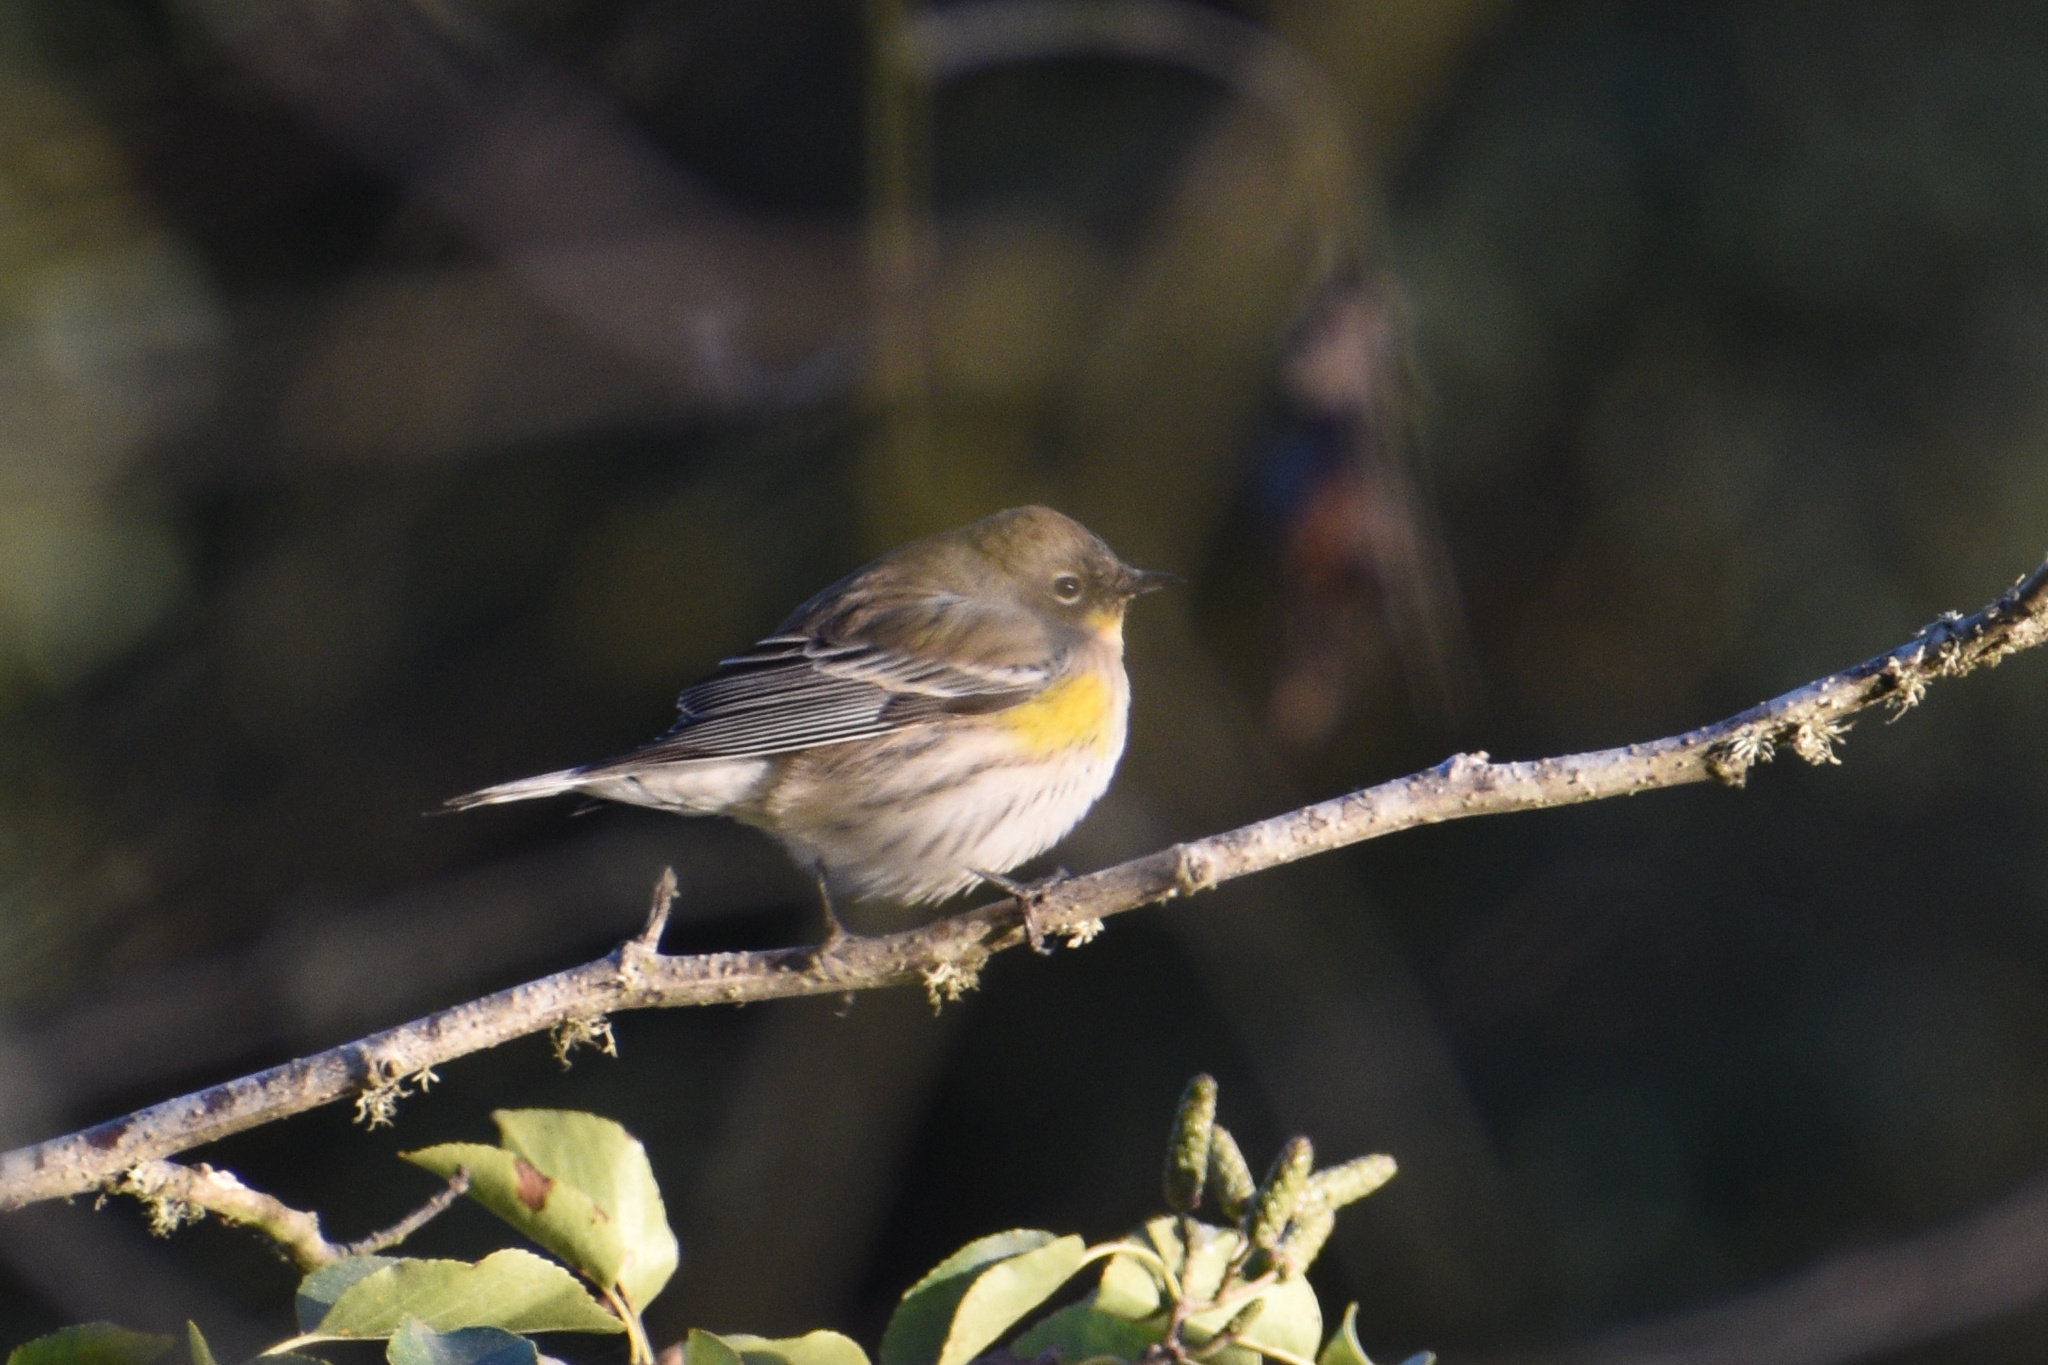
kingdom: Animalia
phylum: Chordata
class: Aves
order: Passeriformes
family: Parulidae
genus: Setophaga
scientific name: Setophaga coronata
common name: Myrtle warbler
